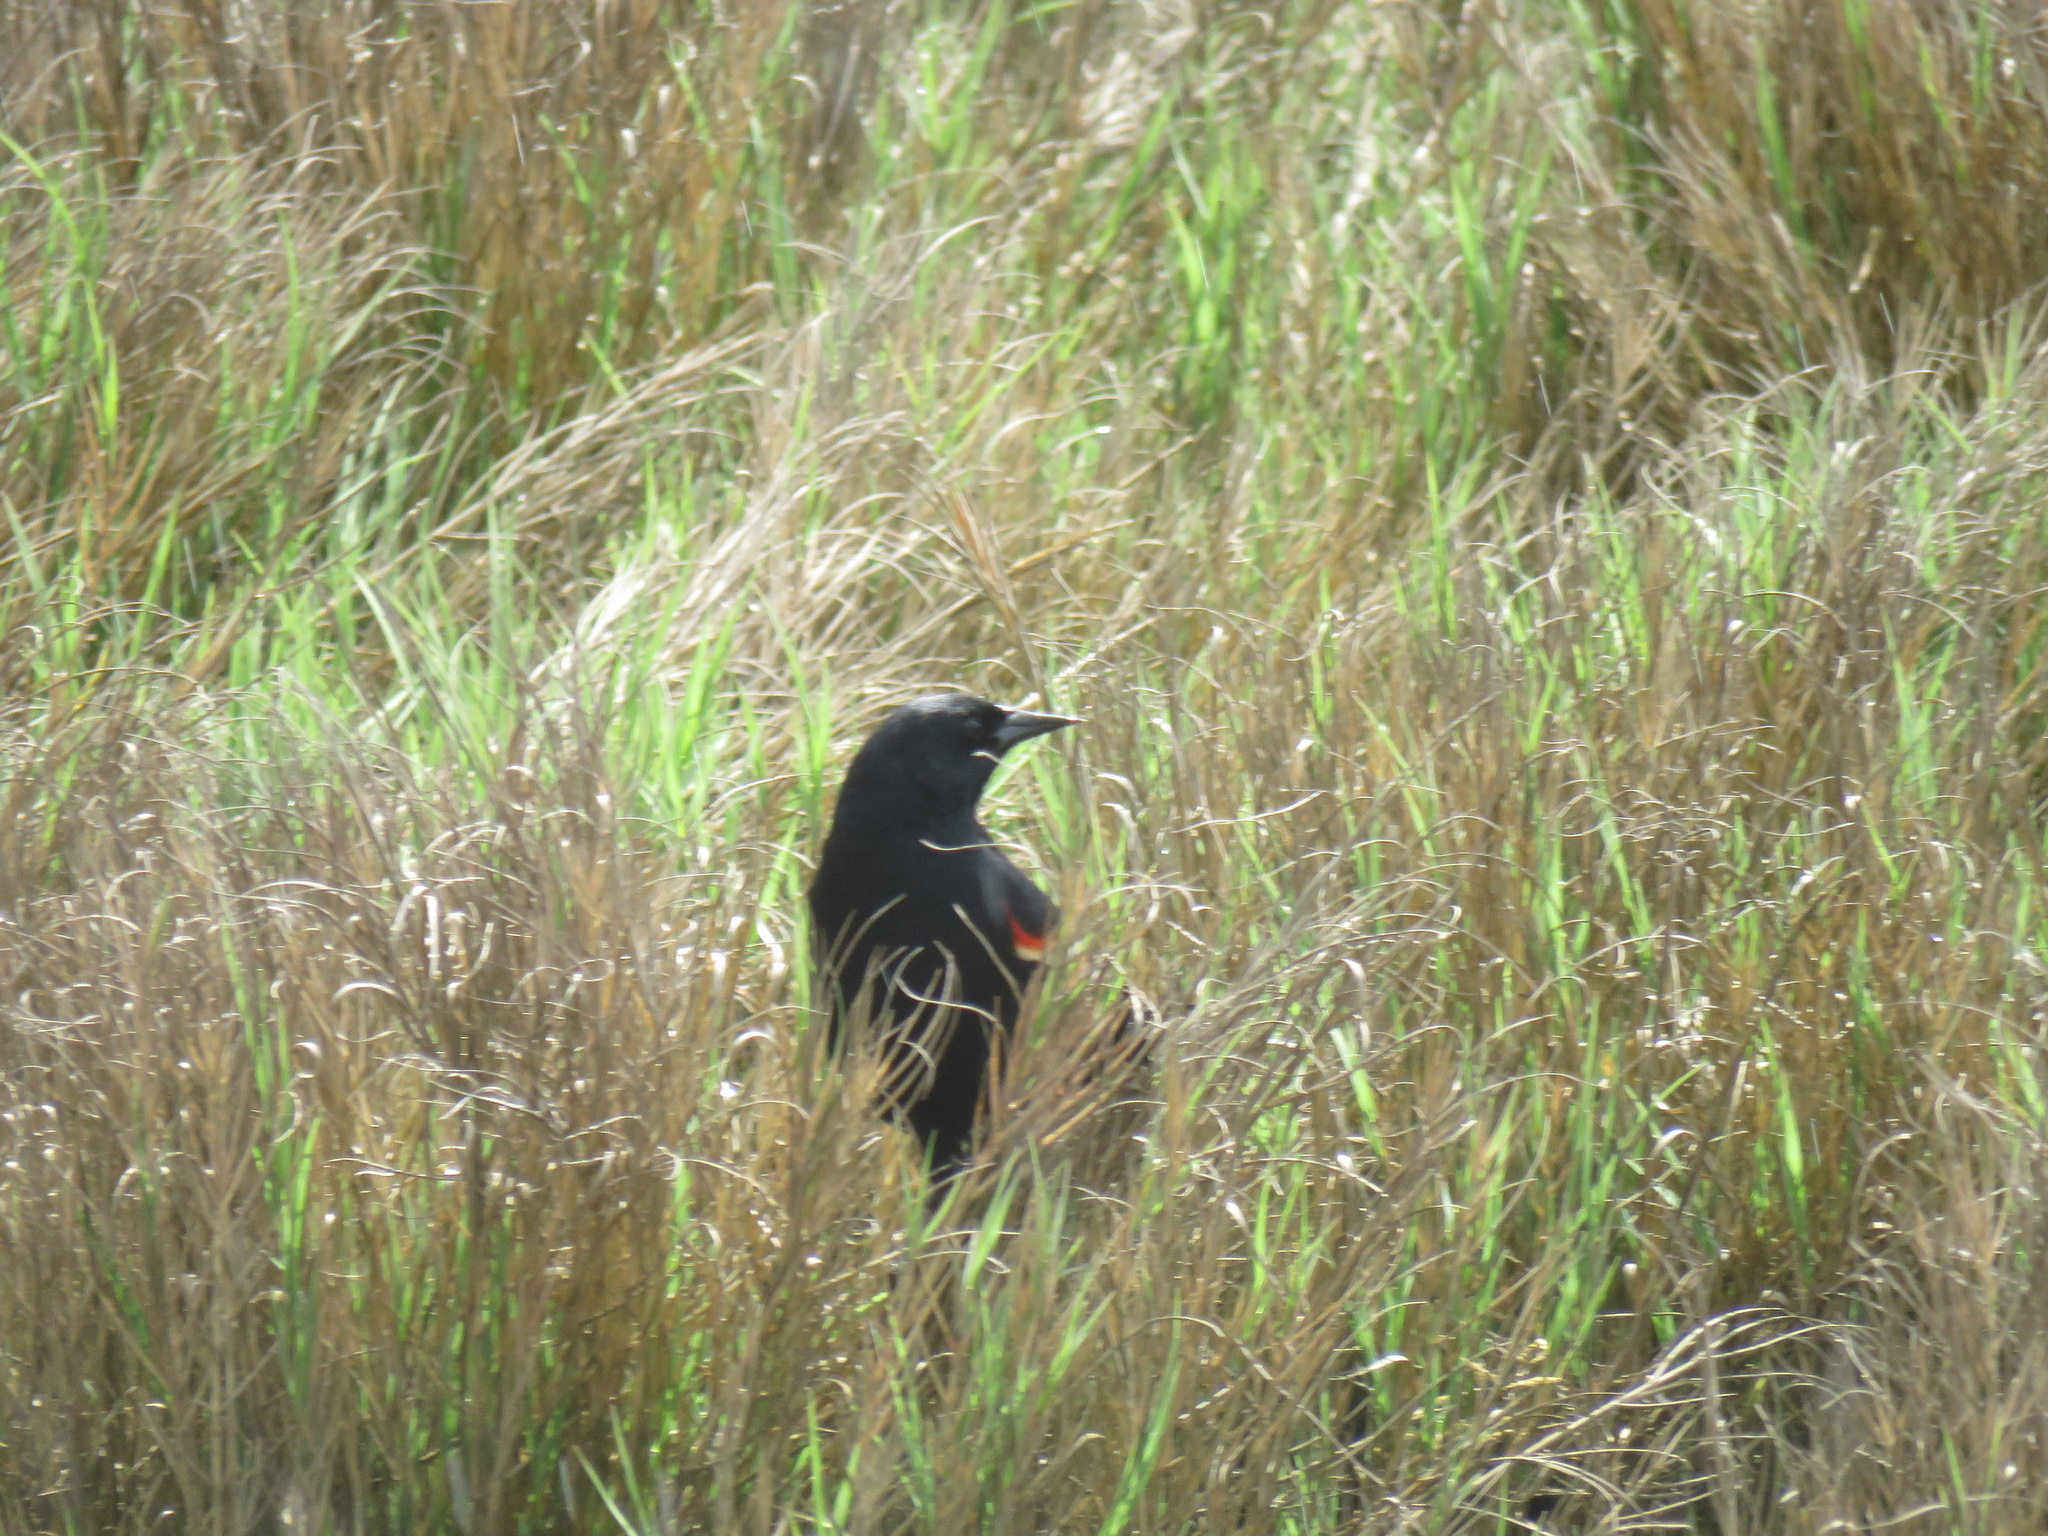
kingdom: Animalia
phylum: Chordata
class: Aves
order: Passeriformes
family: Icteridae
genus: Agelaius
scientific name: Agelaius phoeniceus
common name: Red-winged blackbird
